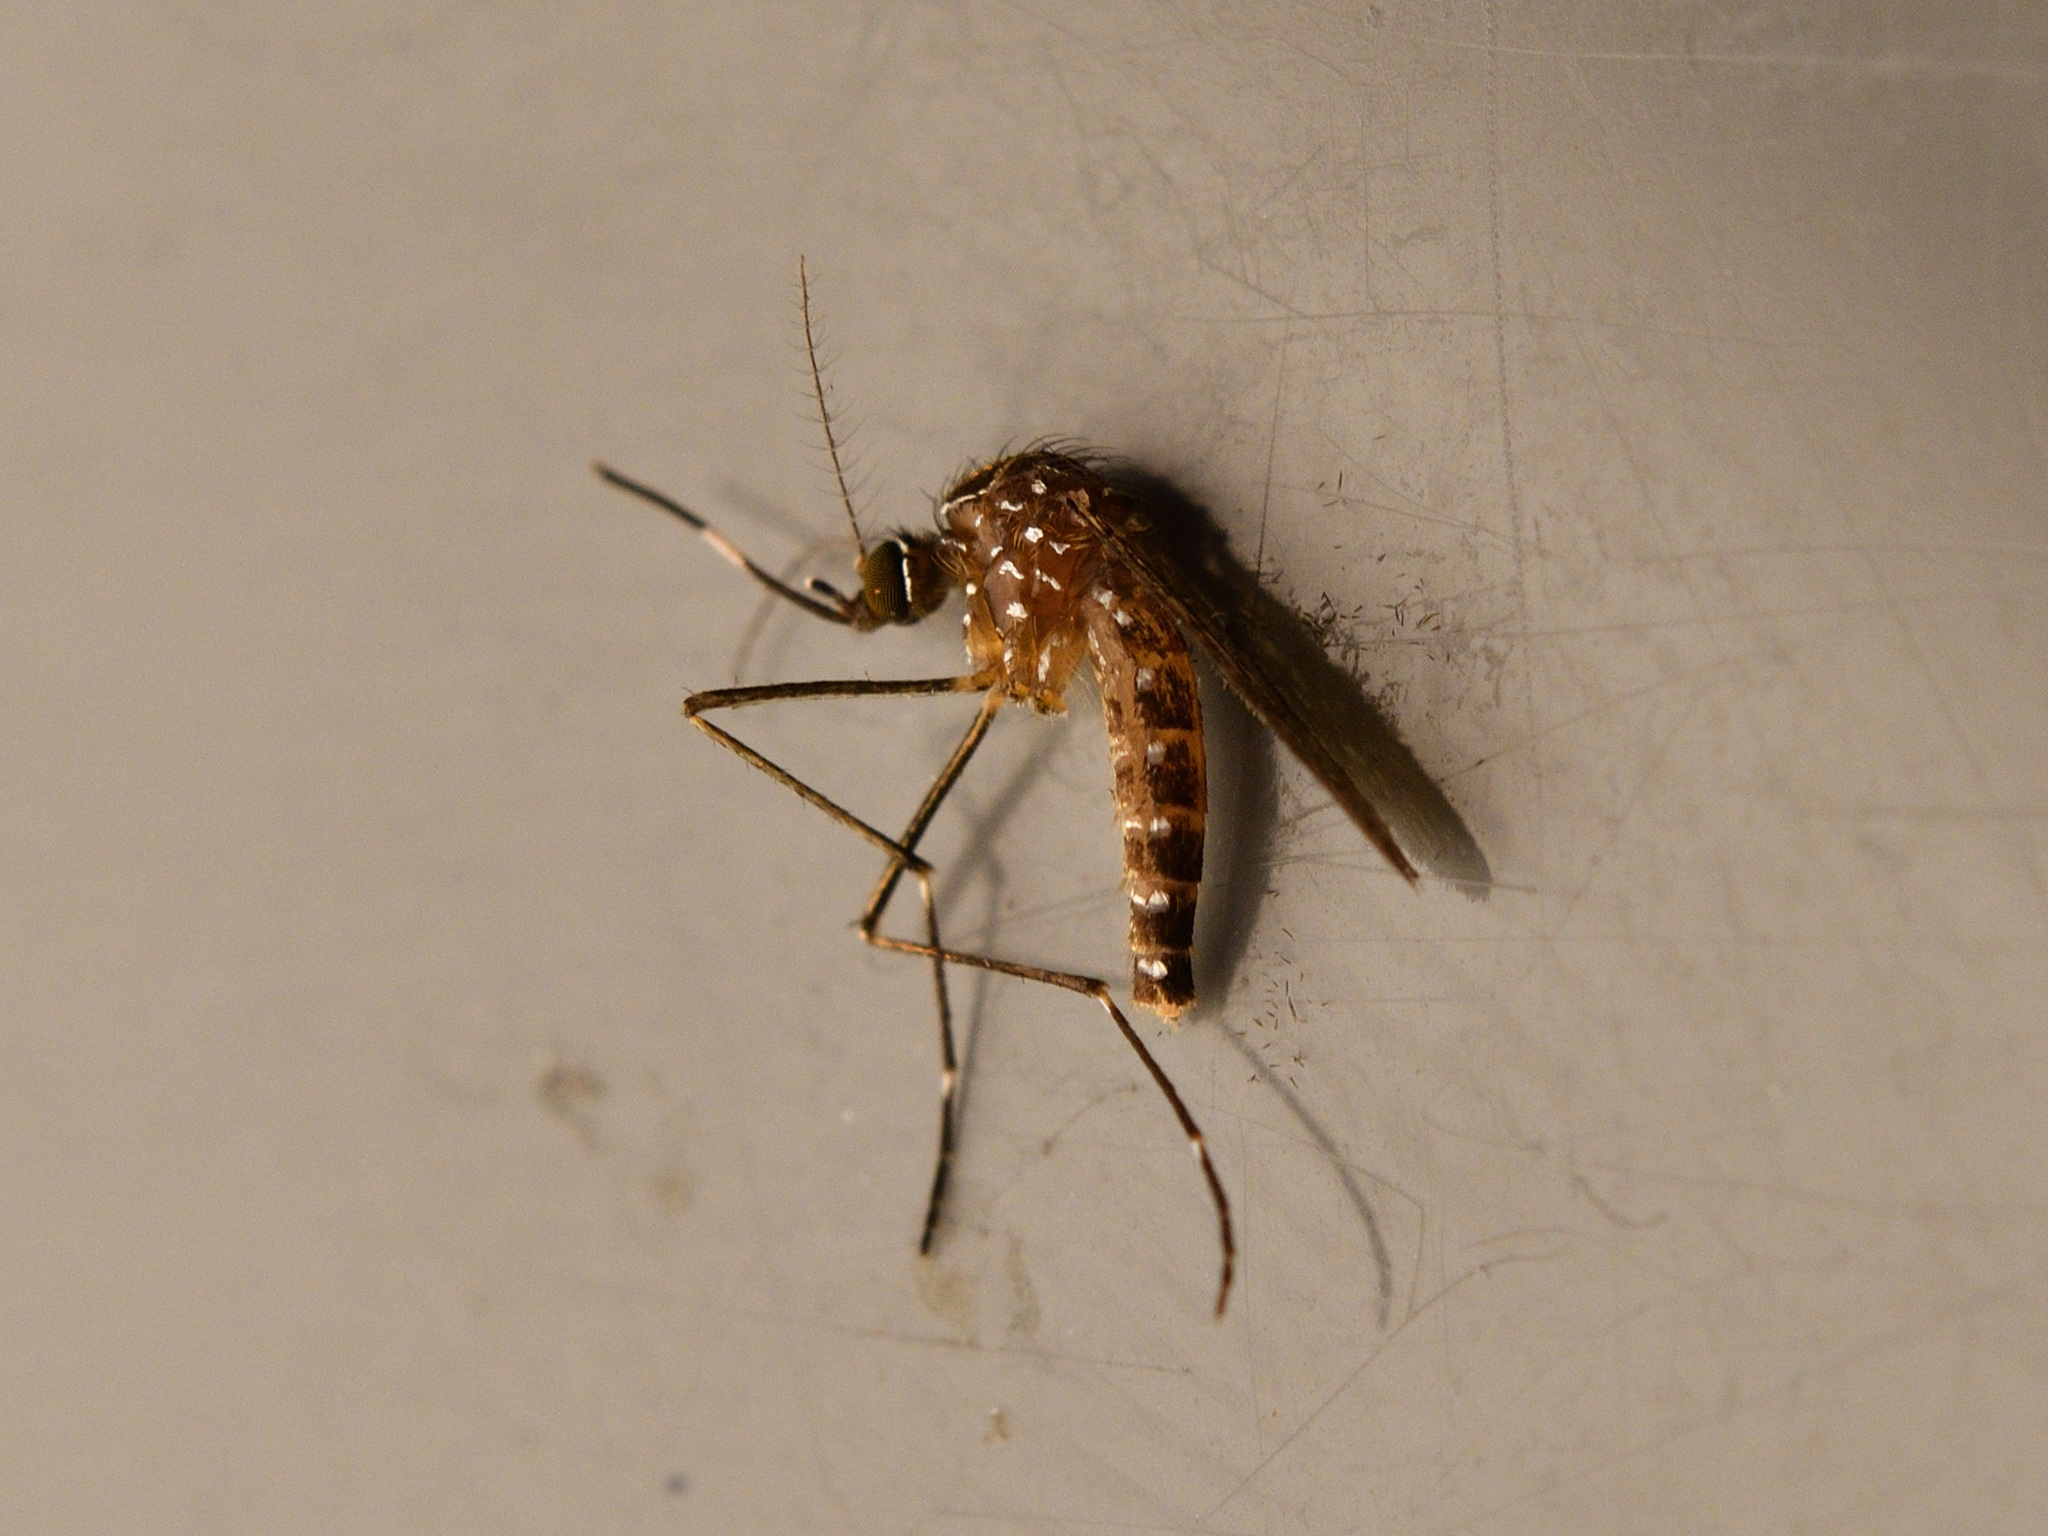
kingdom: Animalia
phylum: Arthropoda
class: Insecta
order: Diptera
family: Culicidae
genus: Aedes
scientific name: Aedes notoscriptus
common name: Australian backyard mosquito
